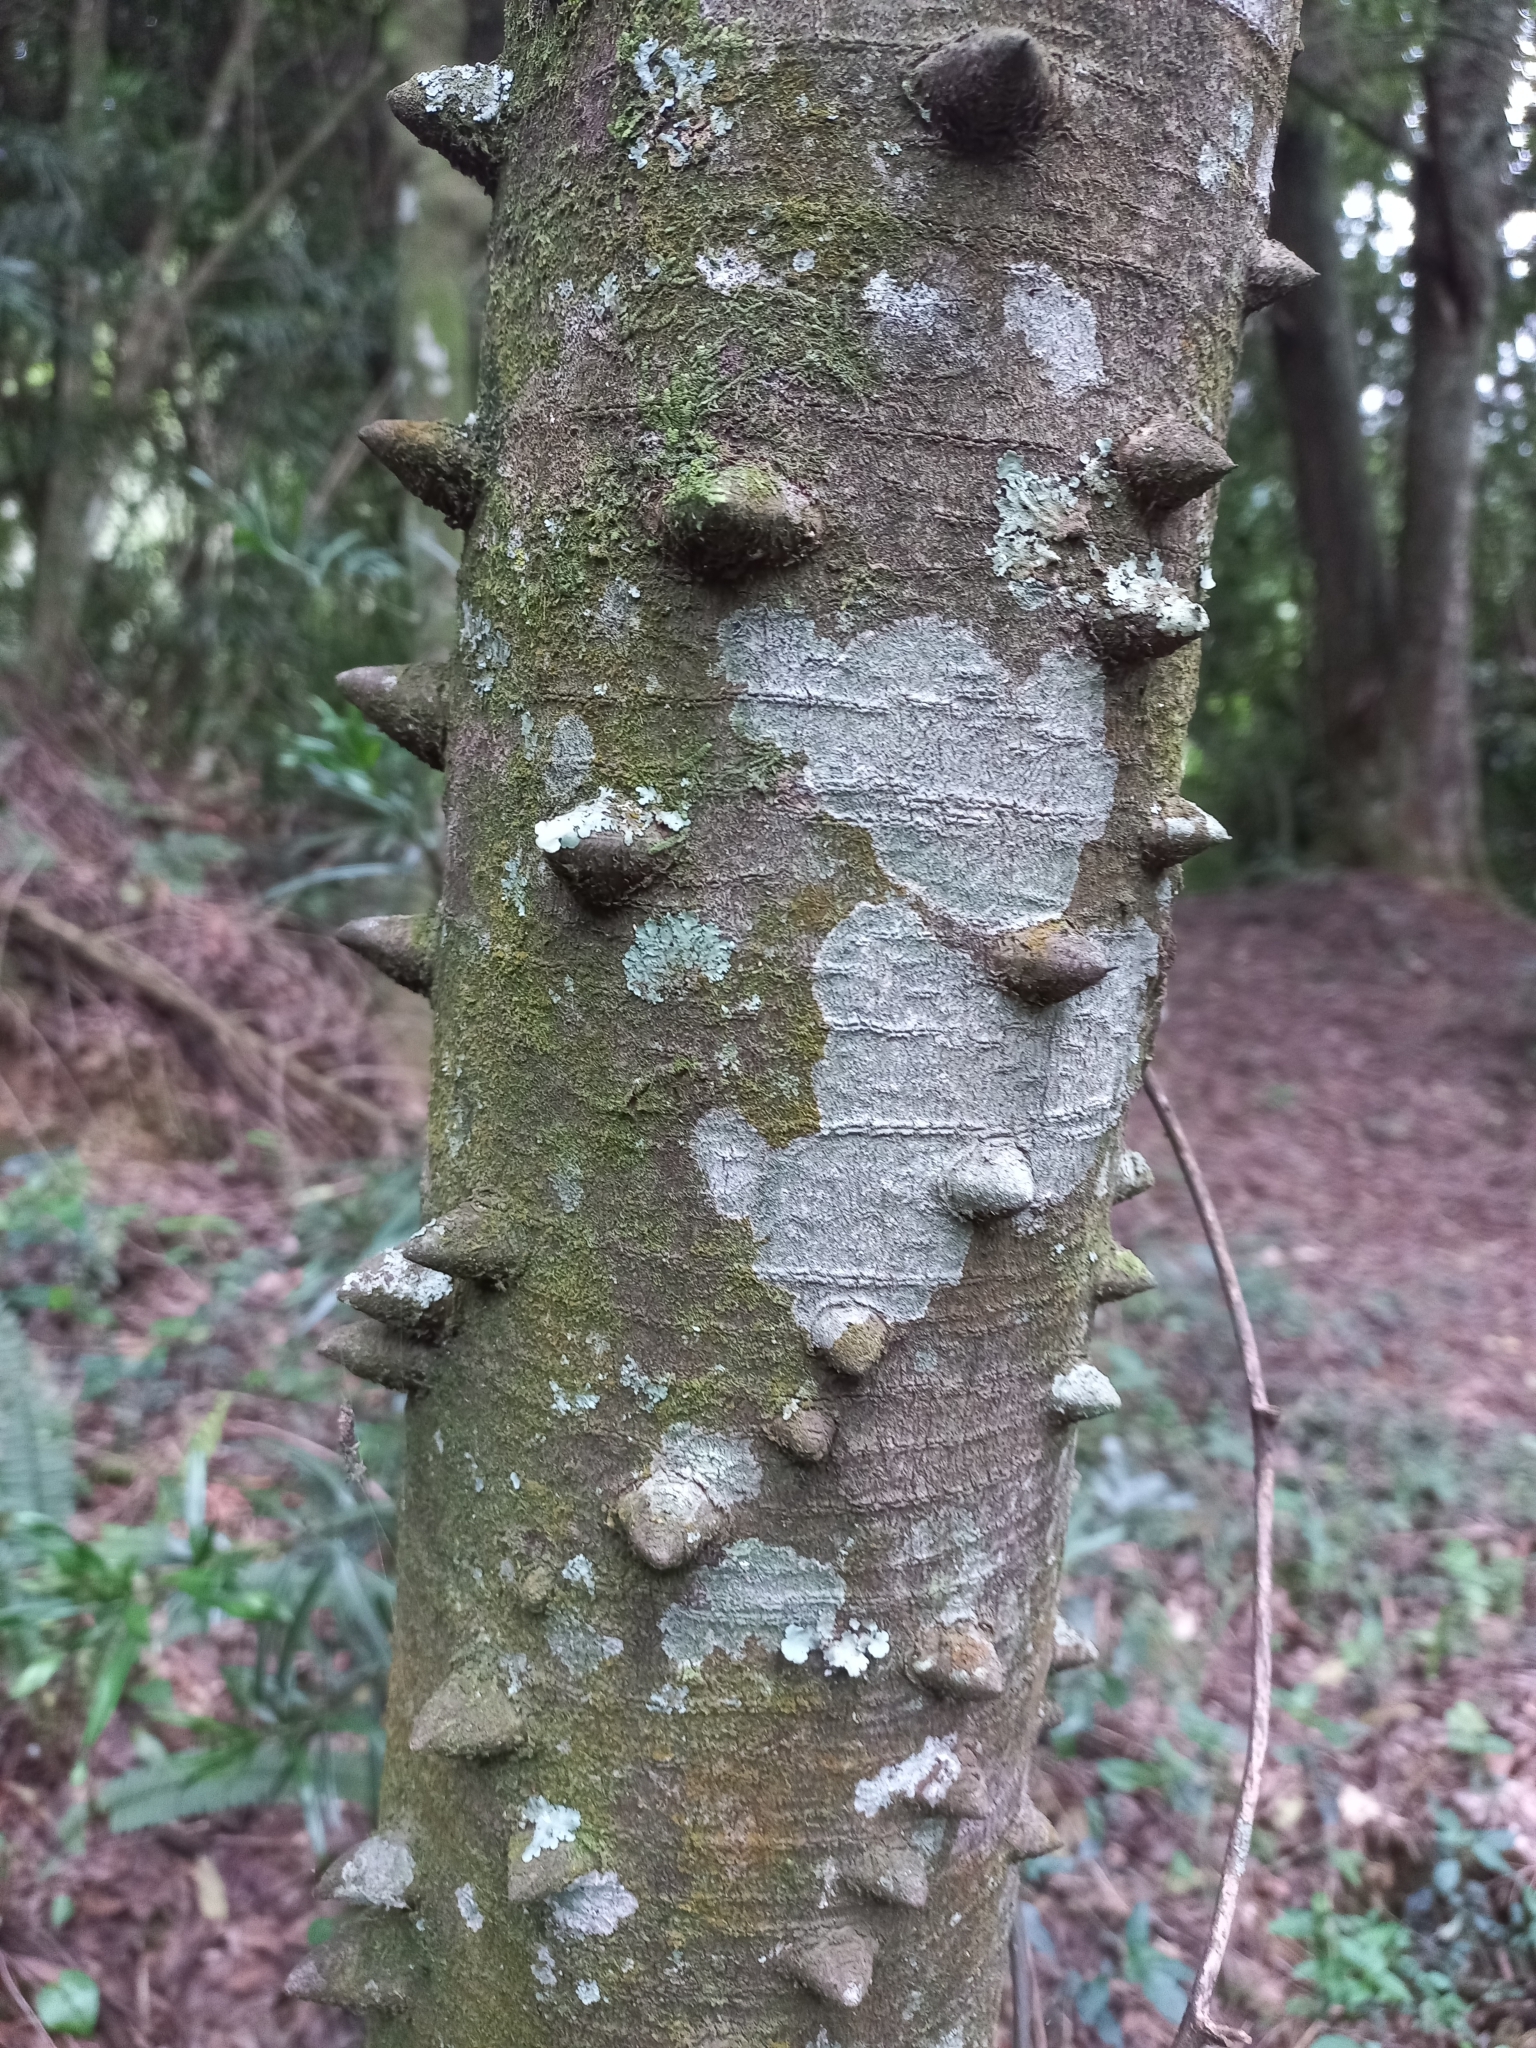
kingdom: Plantae
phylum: Tracheophyta
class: Magnoliopsida
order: Sapindales
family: Rutaceae
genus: Zanthoxylum
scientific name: Zanthoxylum capense
